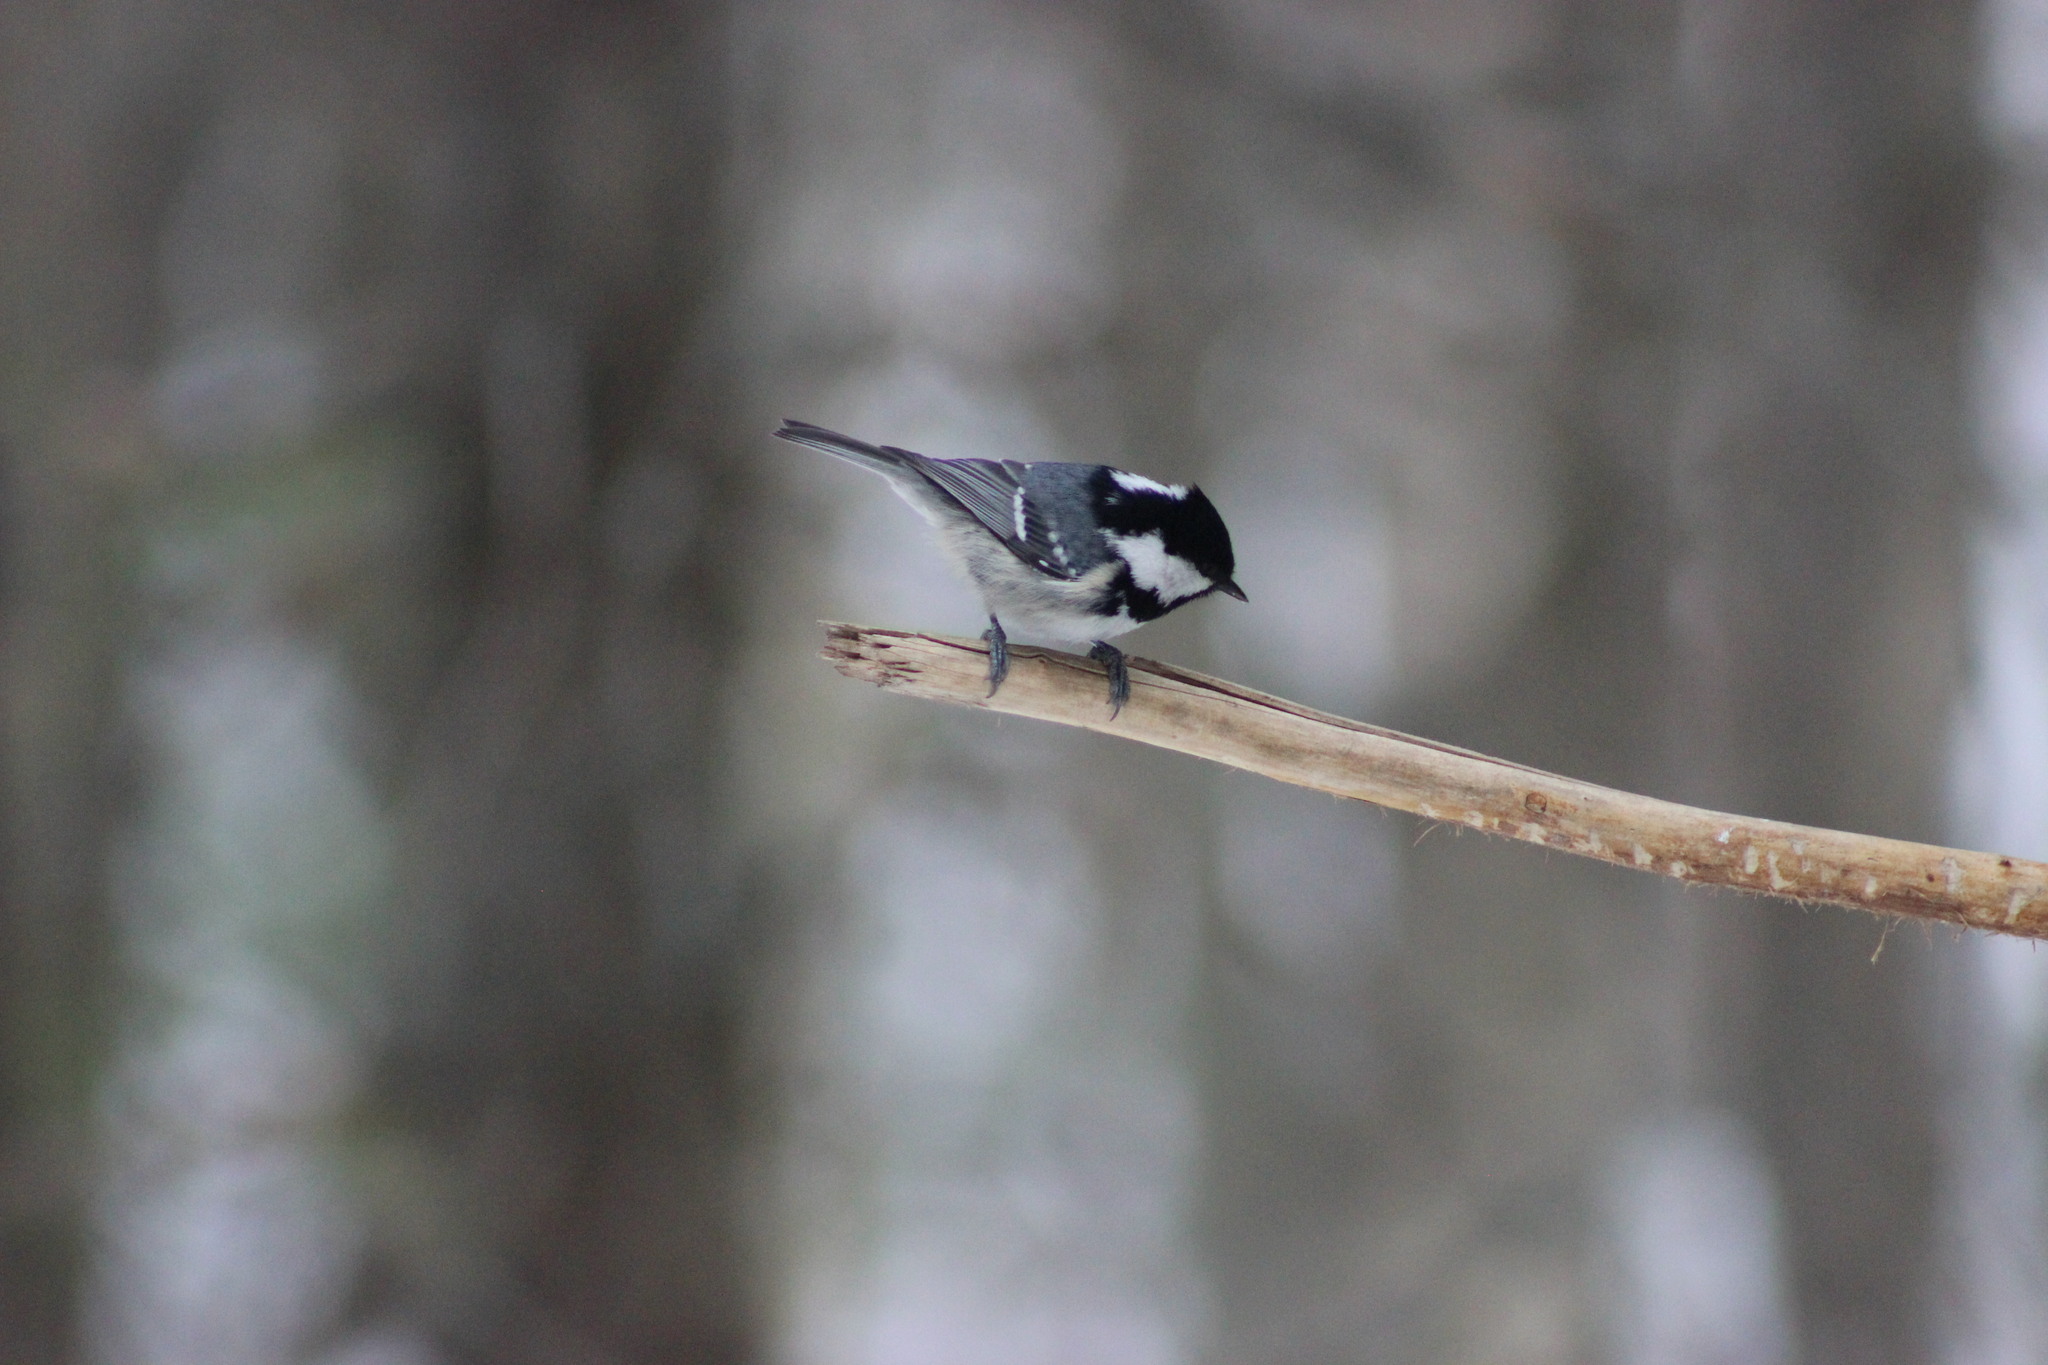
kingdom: Animalia
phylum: Chordata
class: Aves
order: Passeriformes
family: Paridae
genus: Periparus
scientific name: Periparus ater
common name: Coal tit
